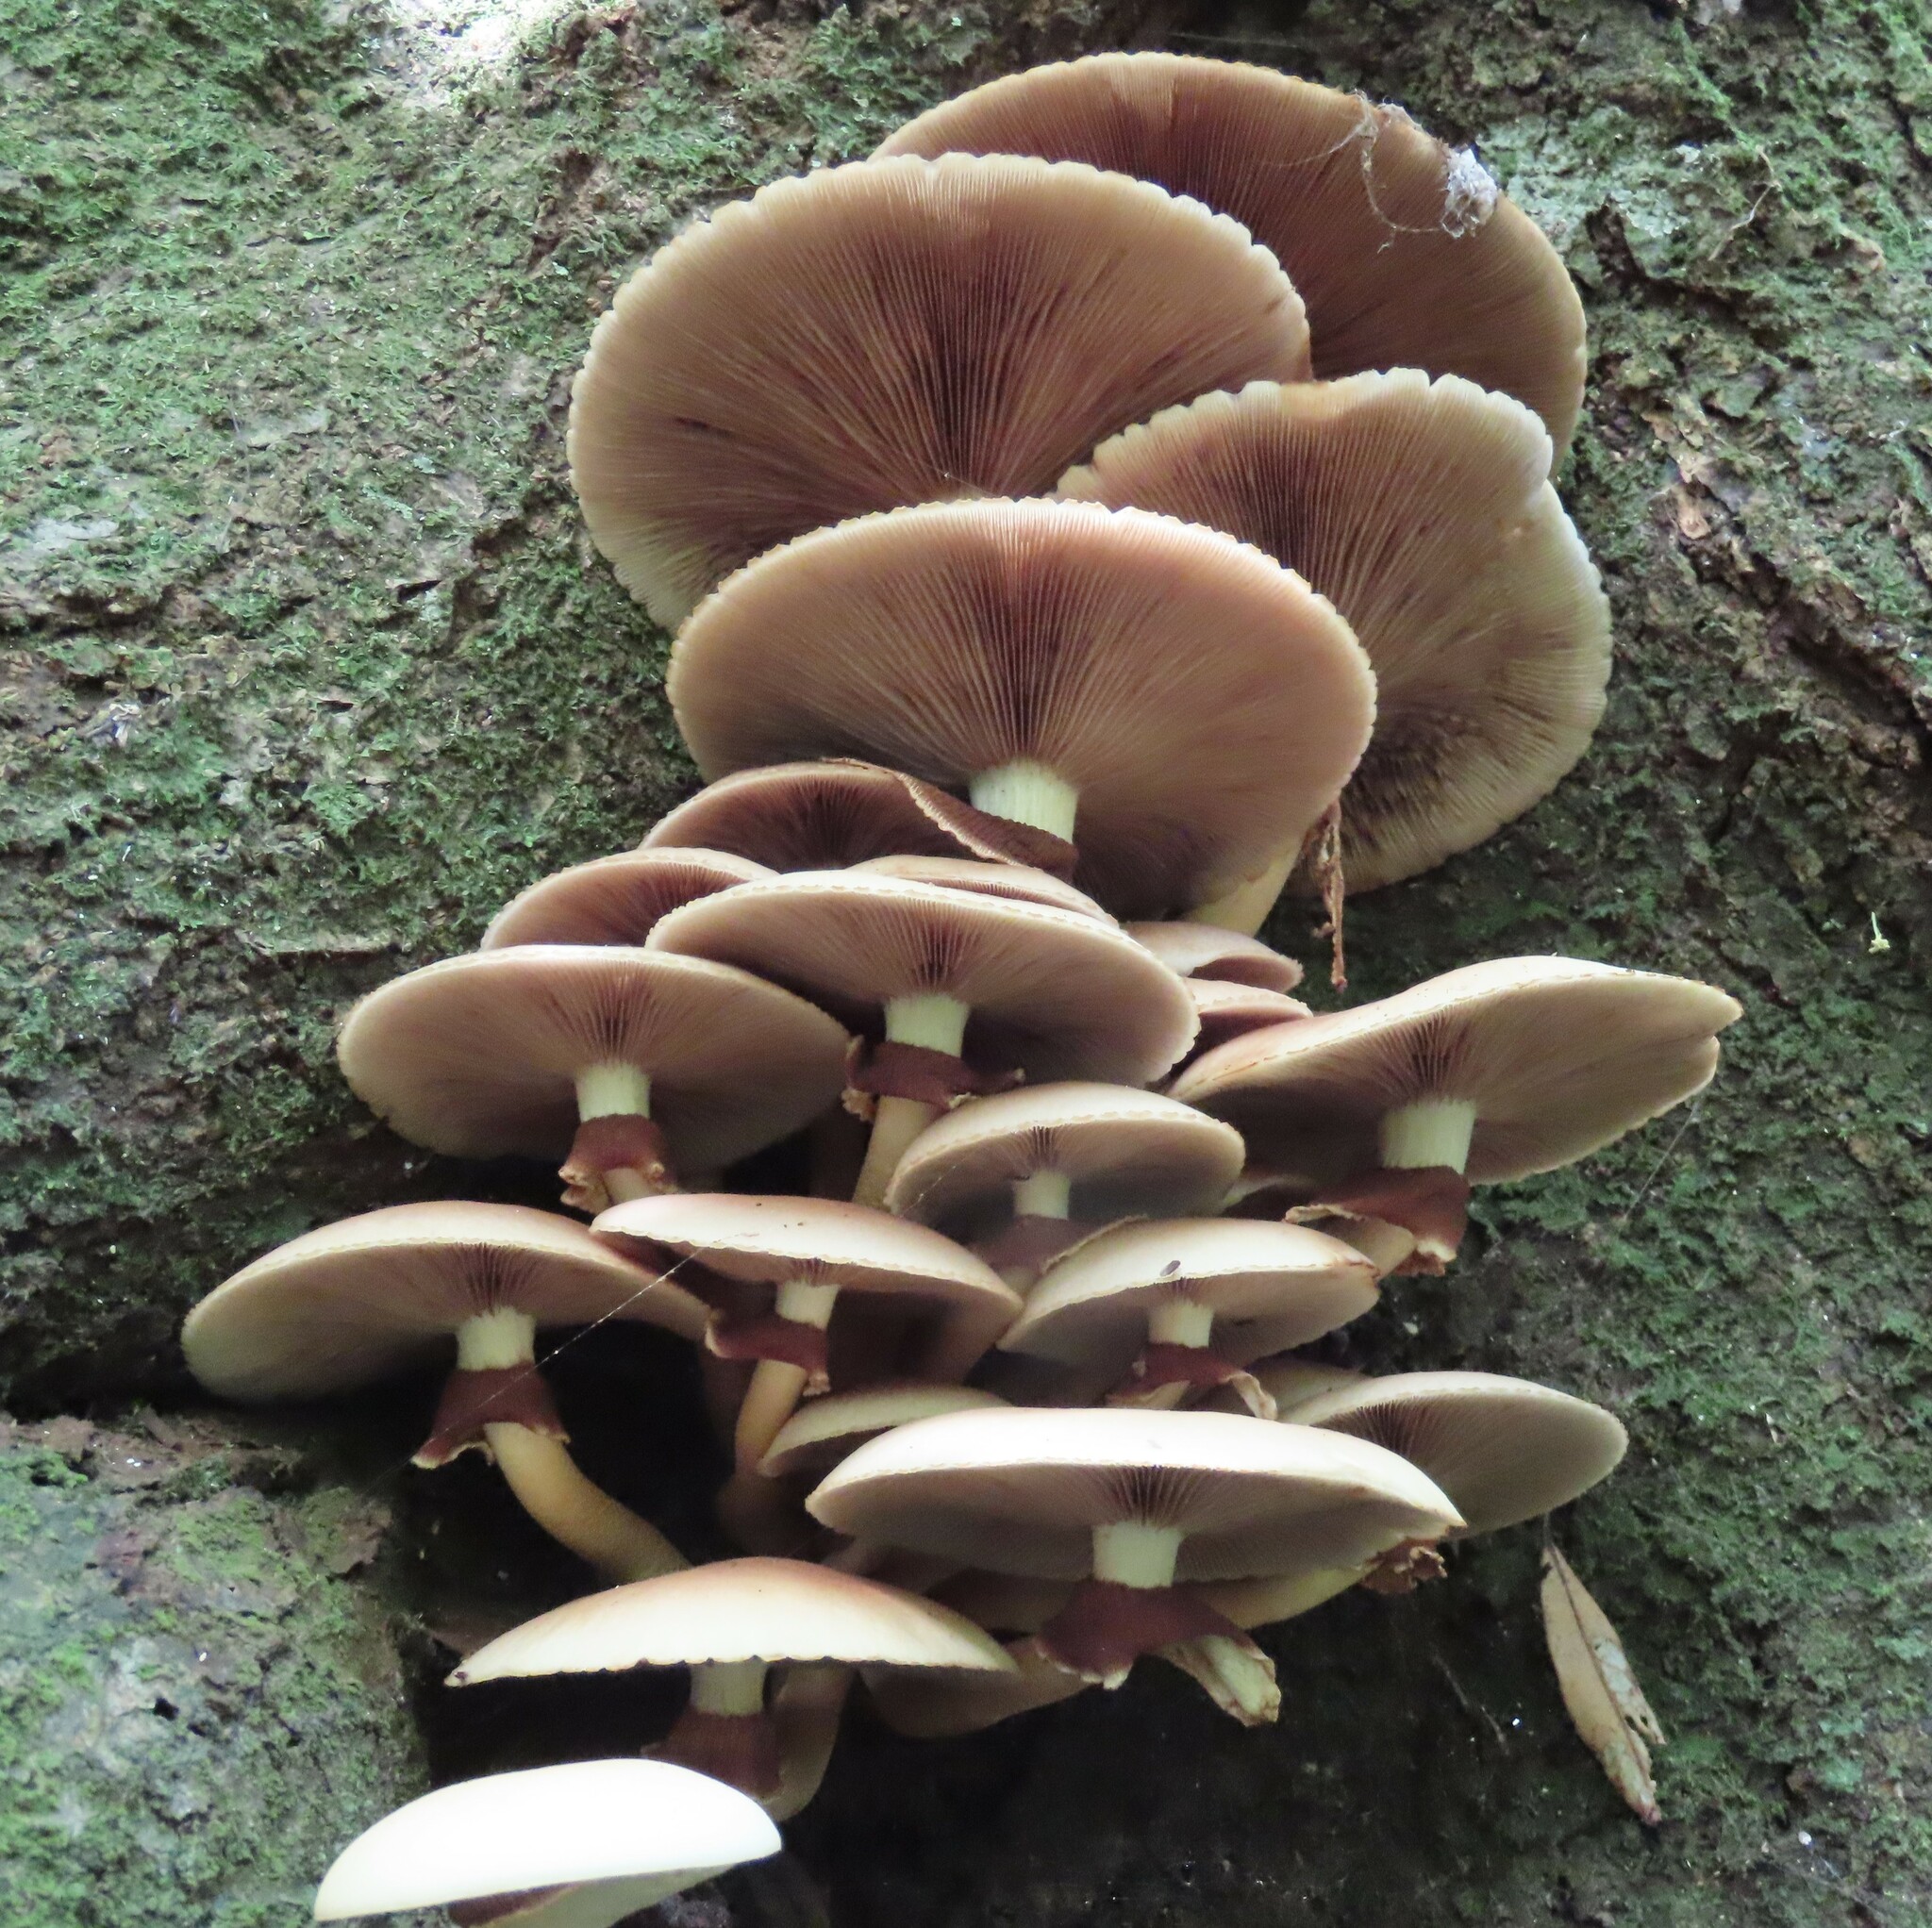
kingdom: Fungi
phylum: Basidiomycota
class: Agaricomycetes
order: Agaricales
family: Tubariaceae
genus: Cyclocybe
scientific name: Cyclocybe parasitica
